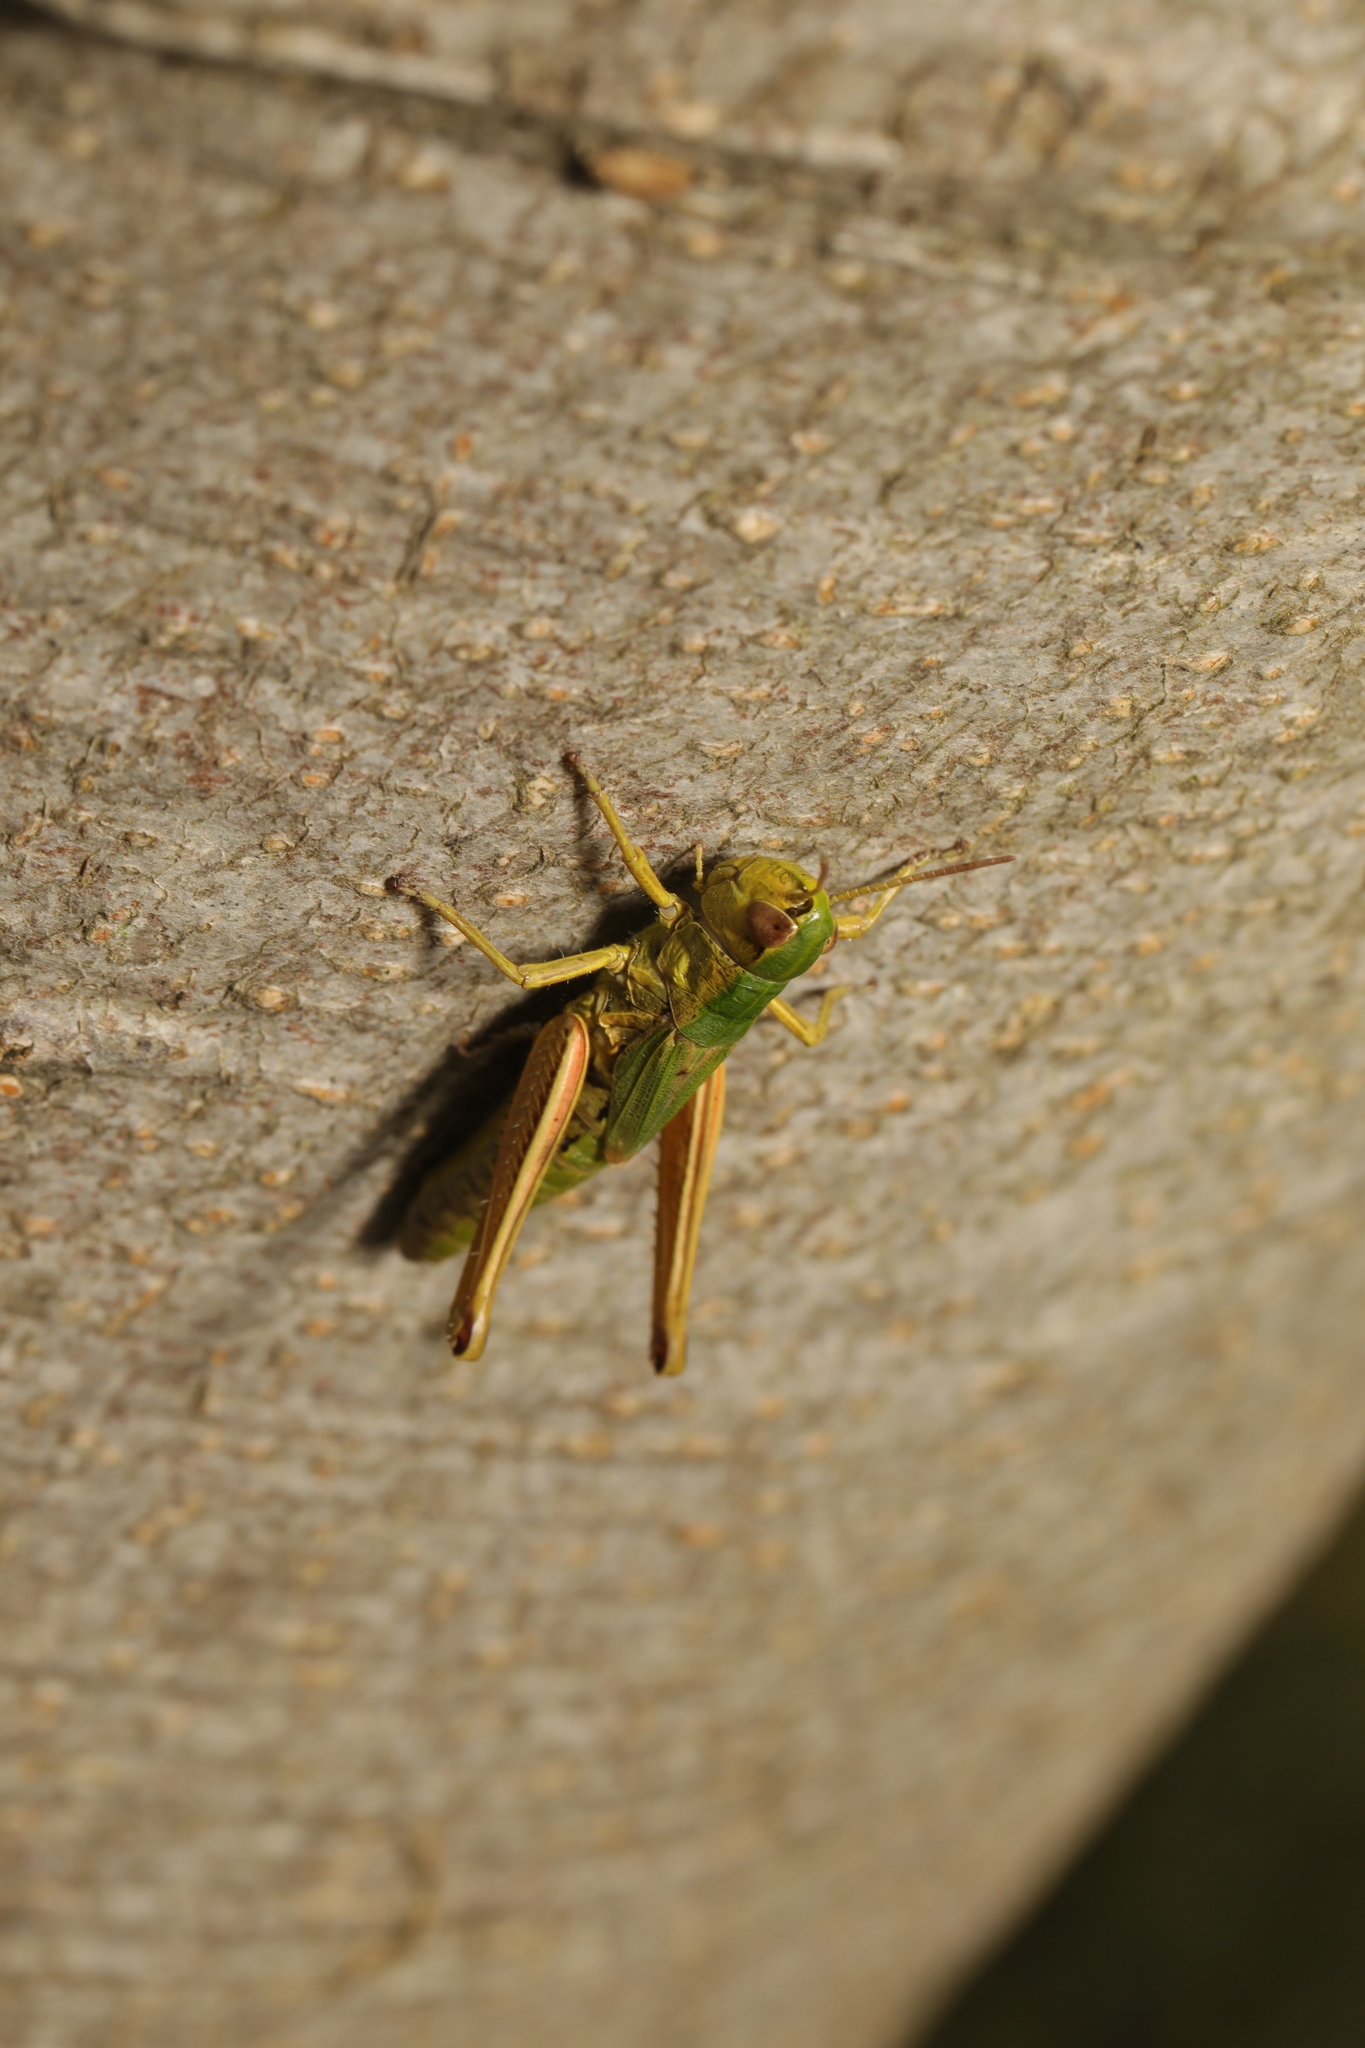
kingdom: Animalia
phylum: Arthropoda
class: Insecta
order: Orthoptera
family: Acrididae
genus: Pseudochorthippus
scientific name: Pseudochorthippus parallelus
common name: Meadow grasshopper
